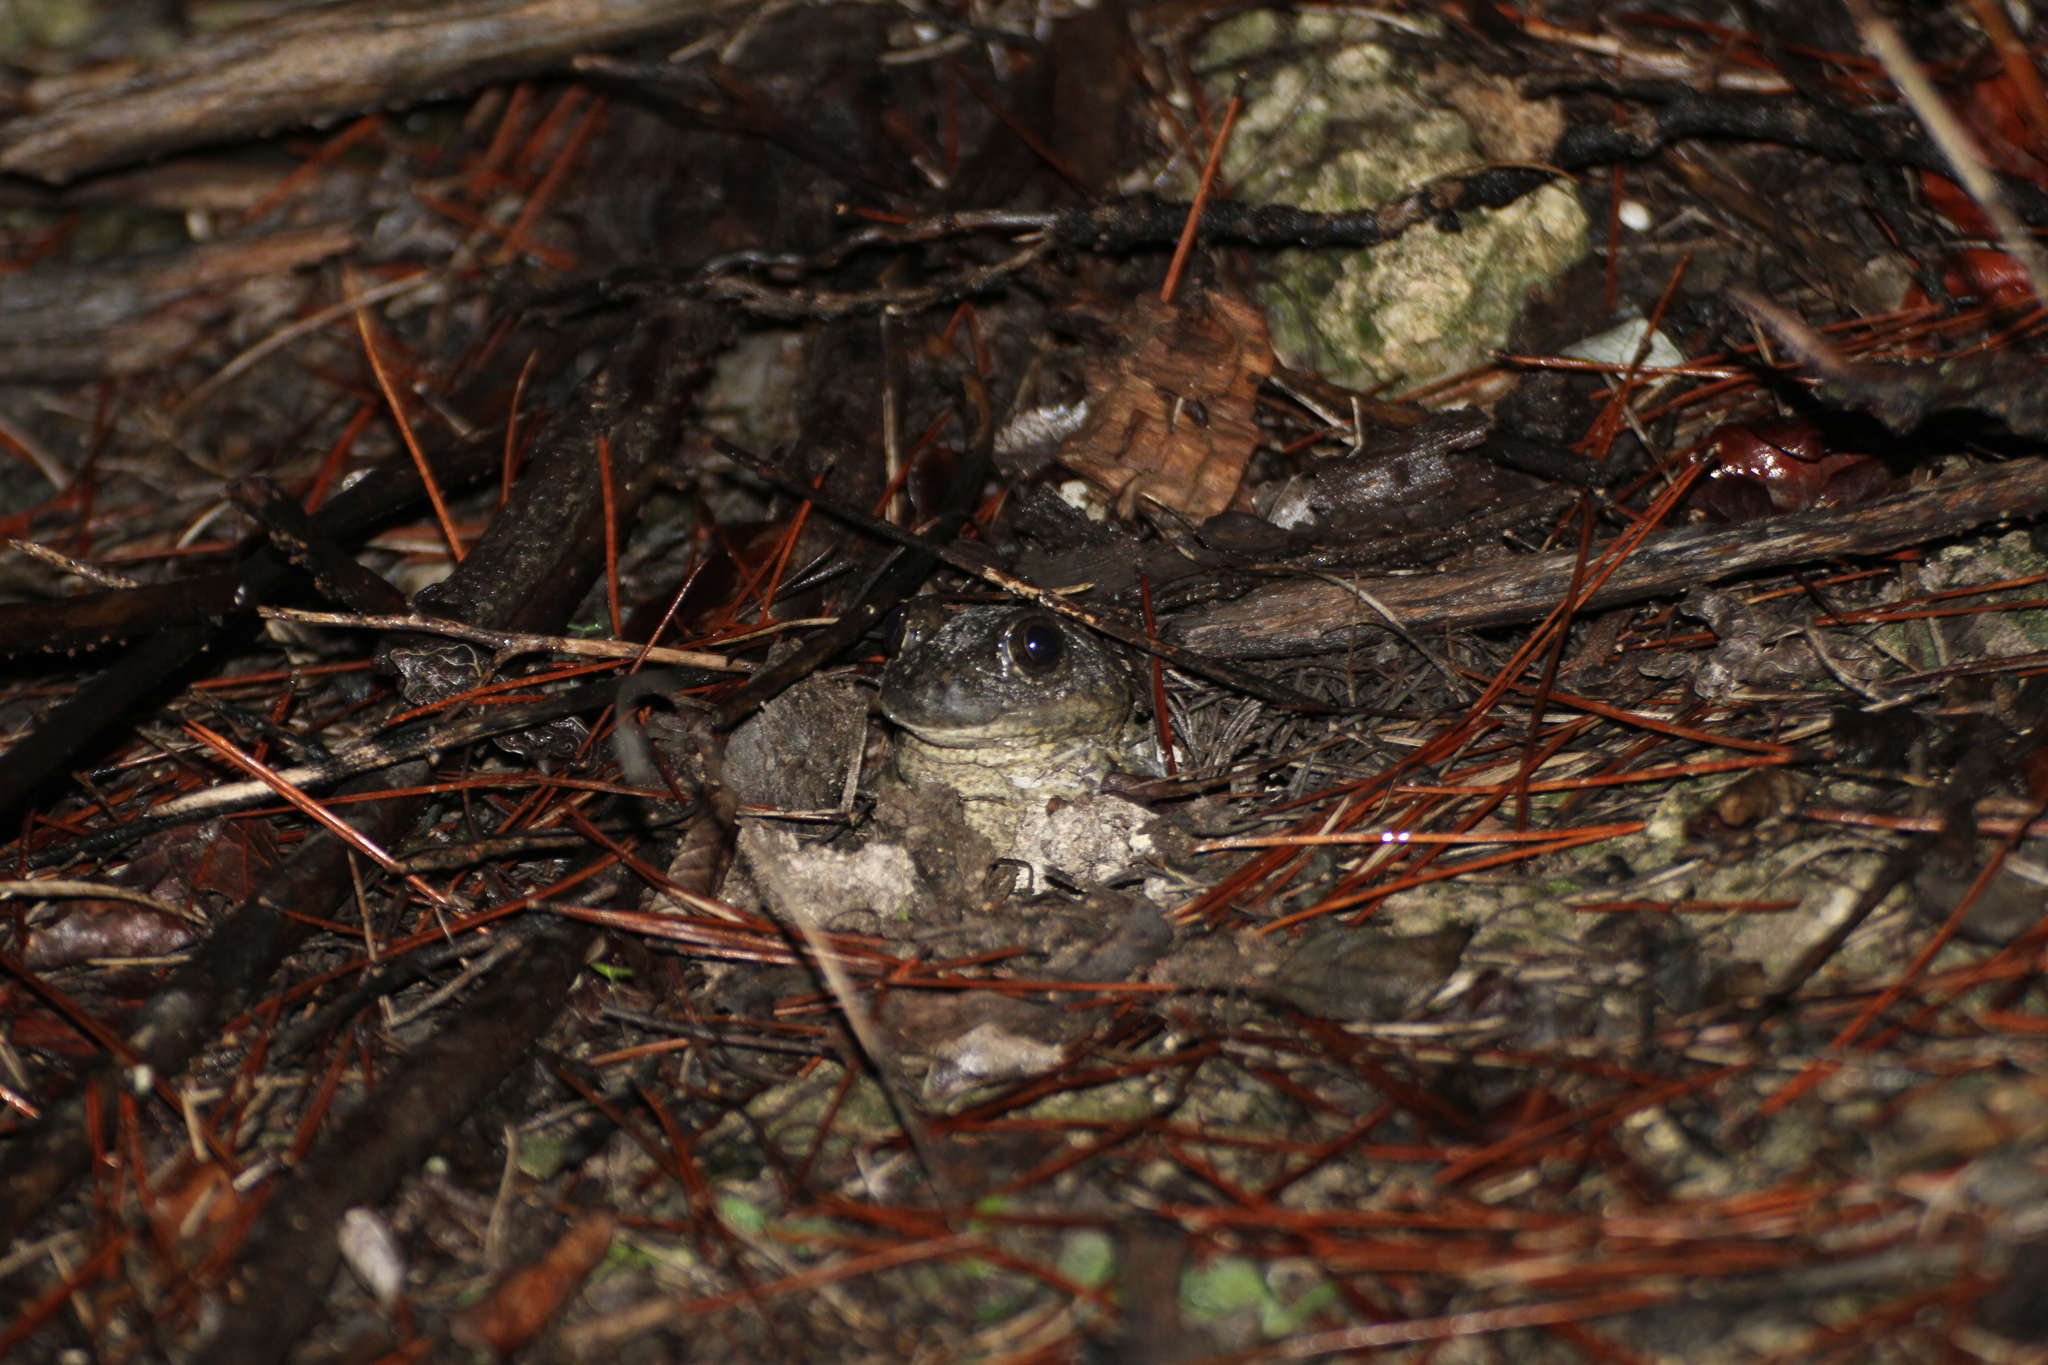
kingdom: Animalia
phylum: Chordata
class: Amphibia
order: Anura
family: Pelobatidae
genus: Pelobates
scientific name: Pelobates cultripes
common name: Western spadefoot
